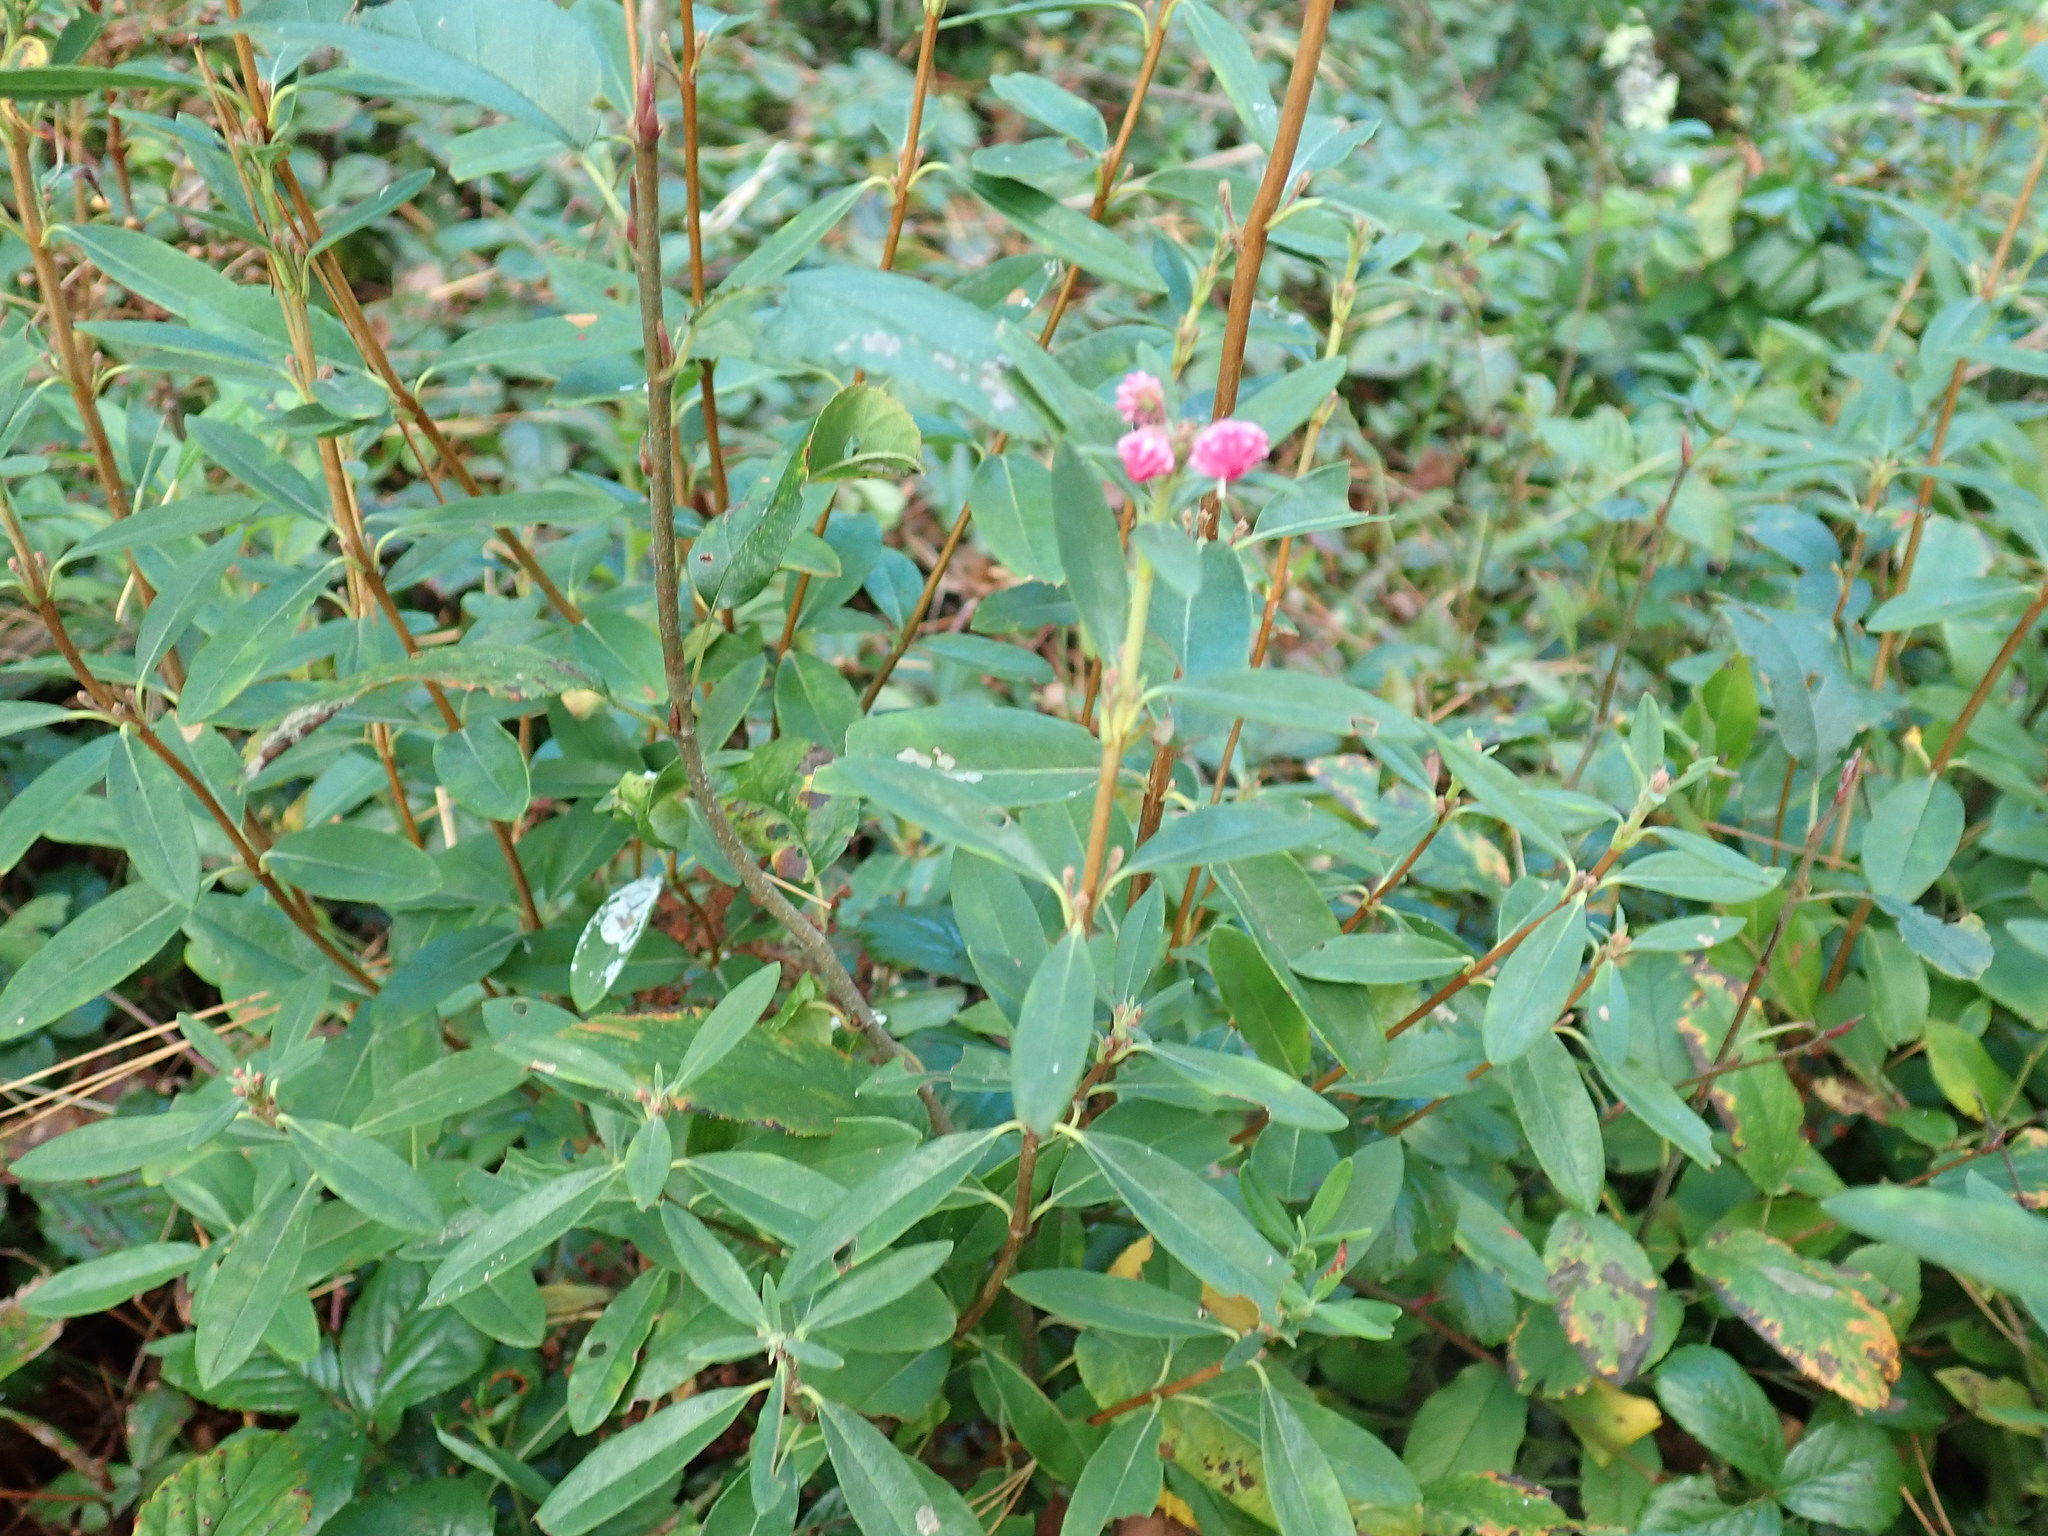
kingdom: Plantae
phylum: Tracheophyta
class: Magnoliopsida
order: Ericales
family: Ericaceae
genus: Kalmia
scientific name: Kalmia angustifolia
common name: Sheep-laurel
